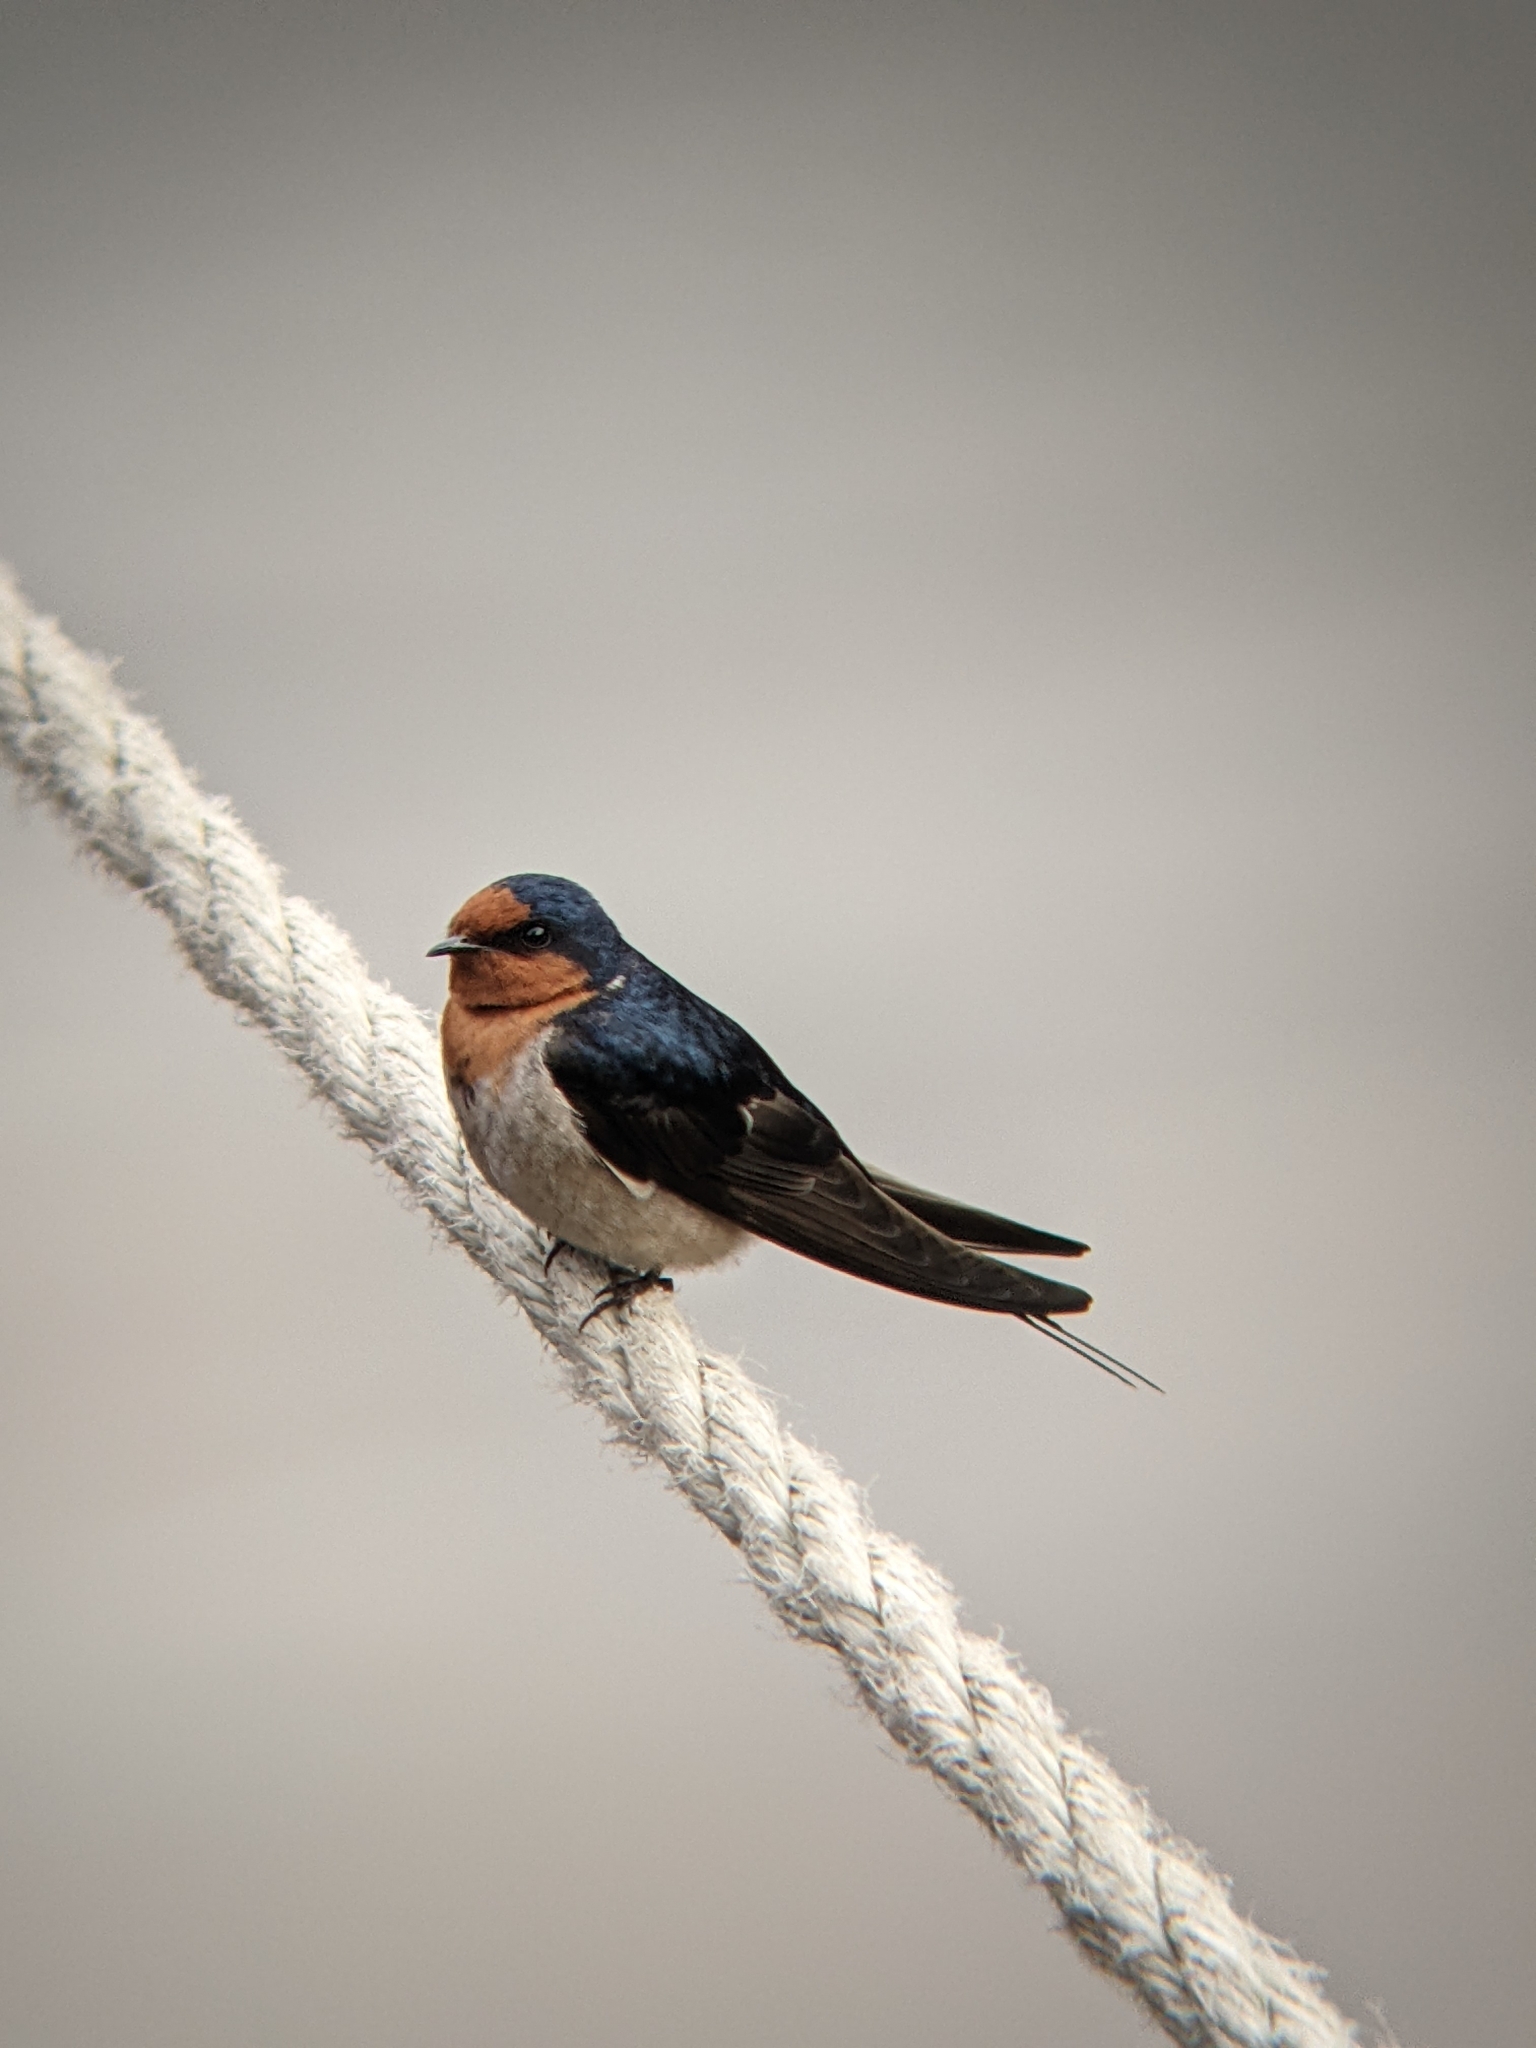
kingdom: Animalia
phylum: Chordata
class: Aves
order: Passeriformes
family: Hirundinidae
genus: Hirundo
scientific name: Hirundo neoxena
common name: Welcome swallow
